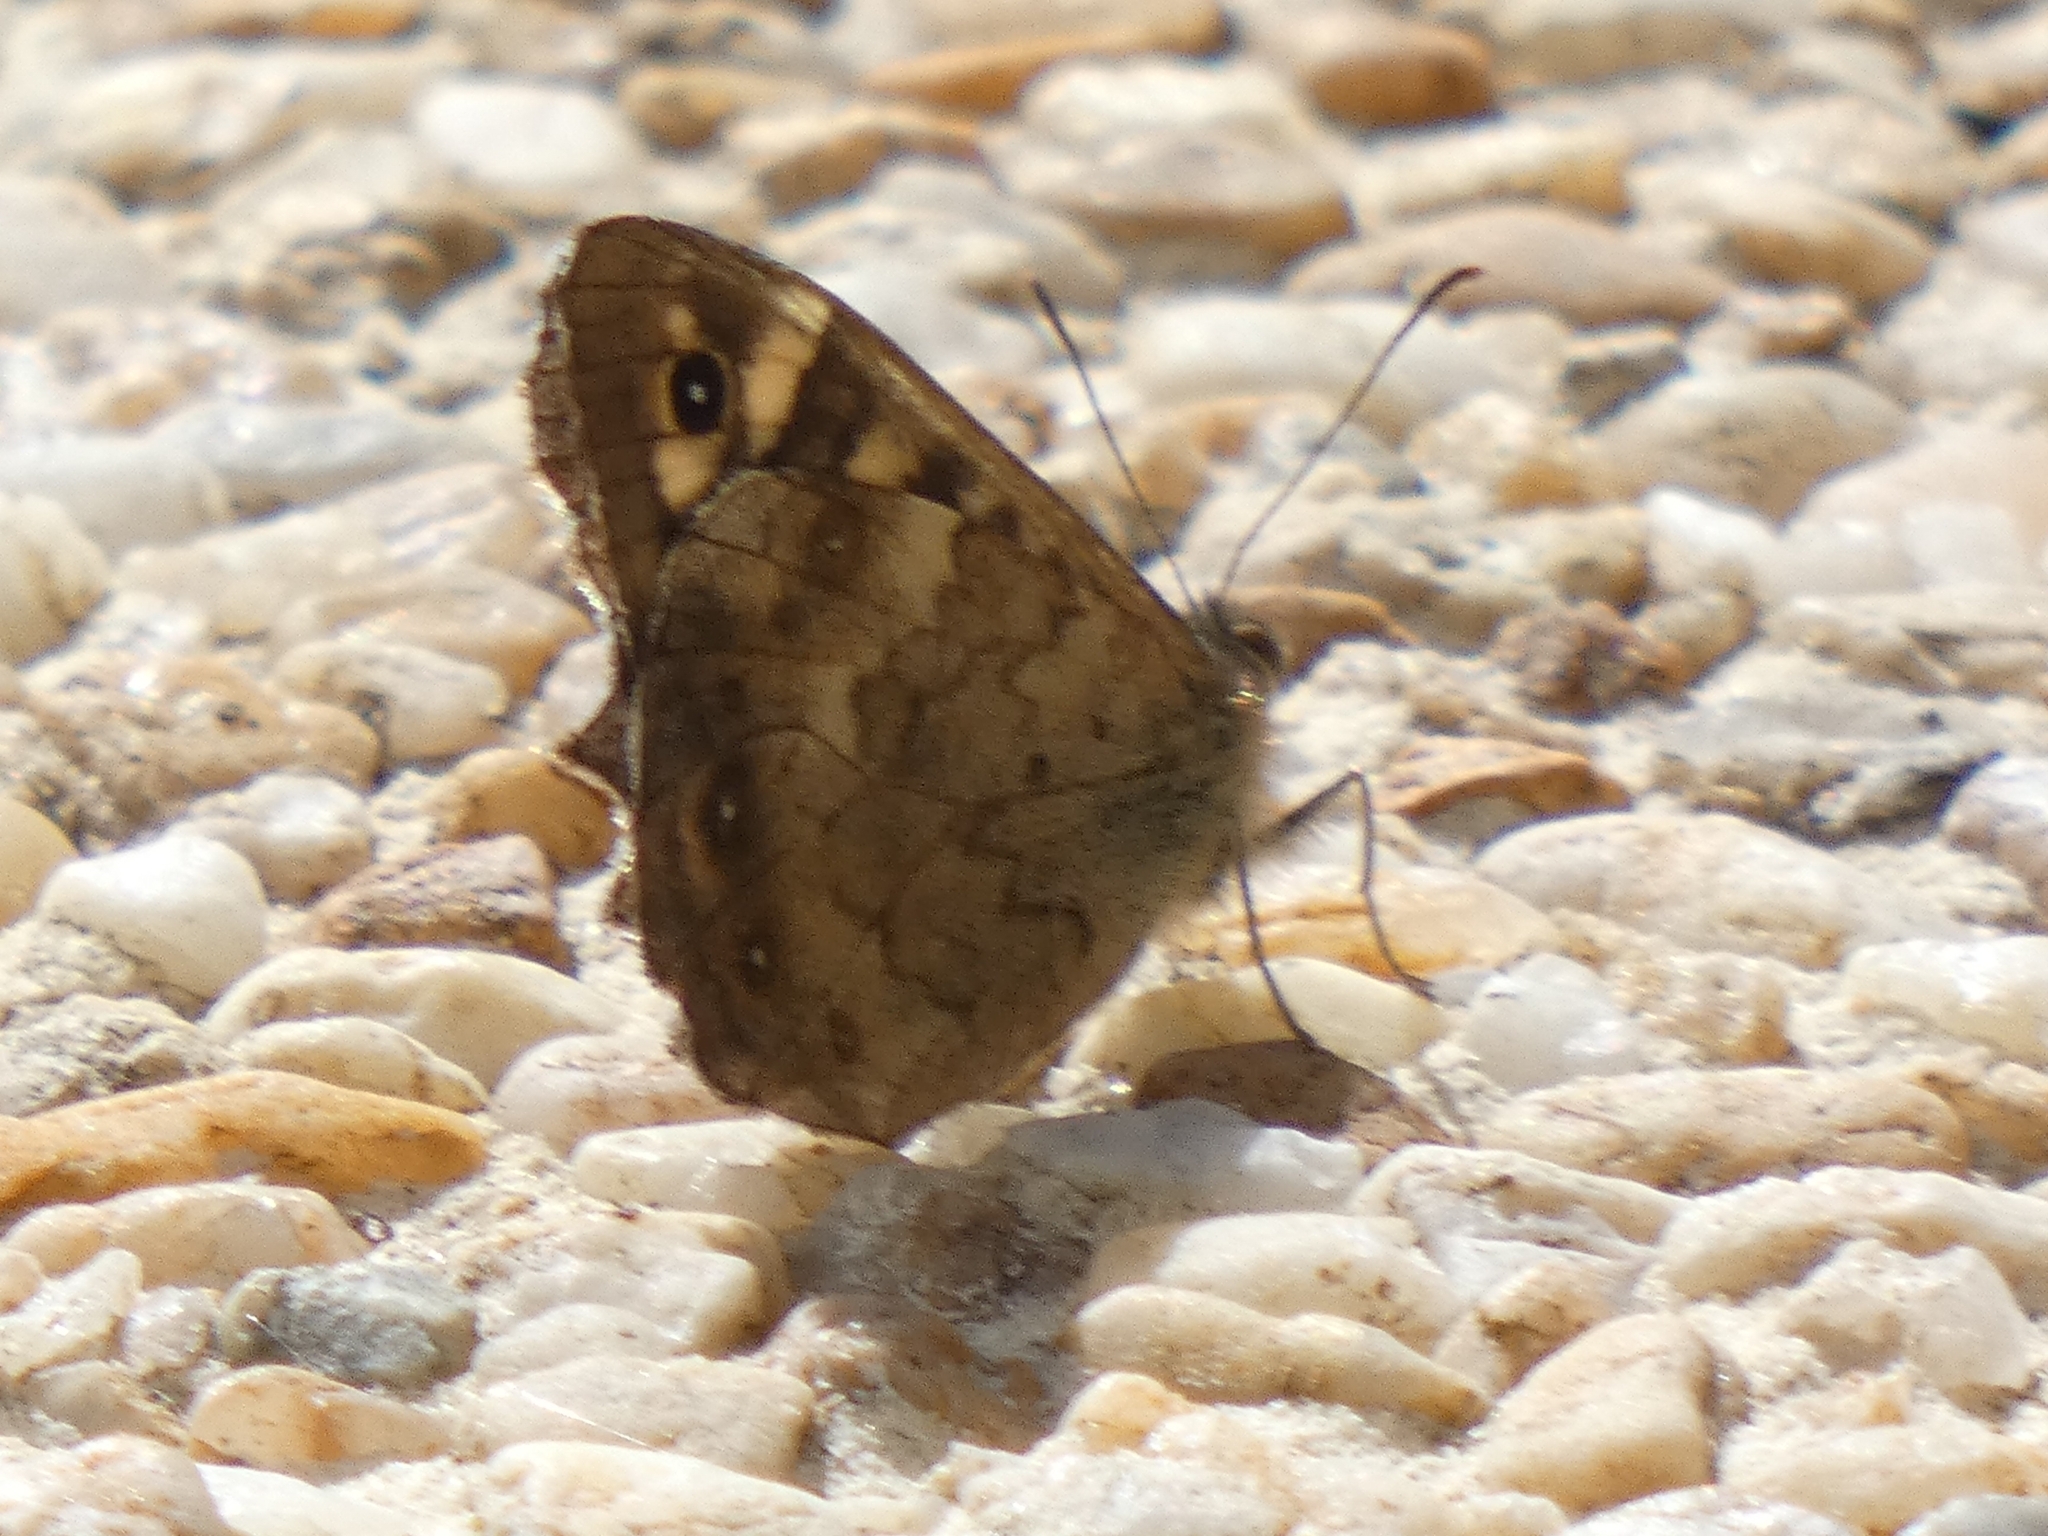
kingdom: Animalia
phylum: Arthropoda
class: Insecta
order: Lepidoptera
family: Nymphalidae
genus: Pararge
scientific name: Pararge aegeria
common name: Speckled wood
